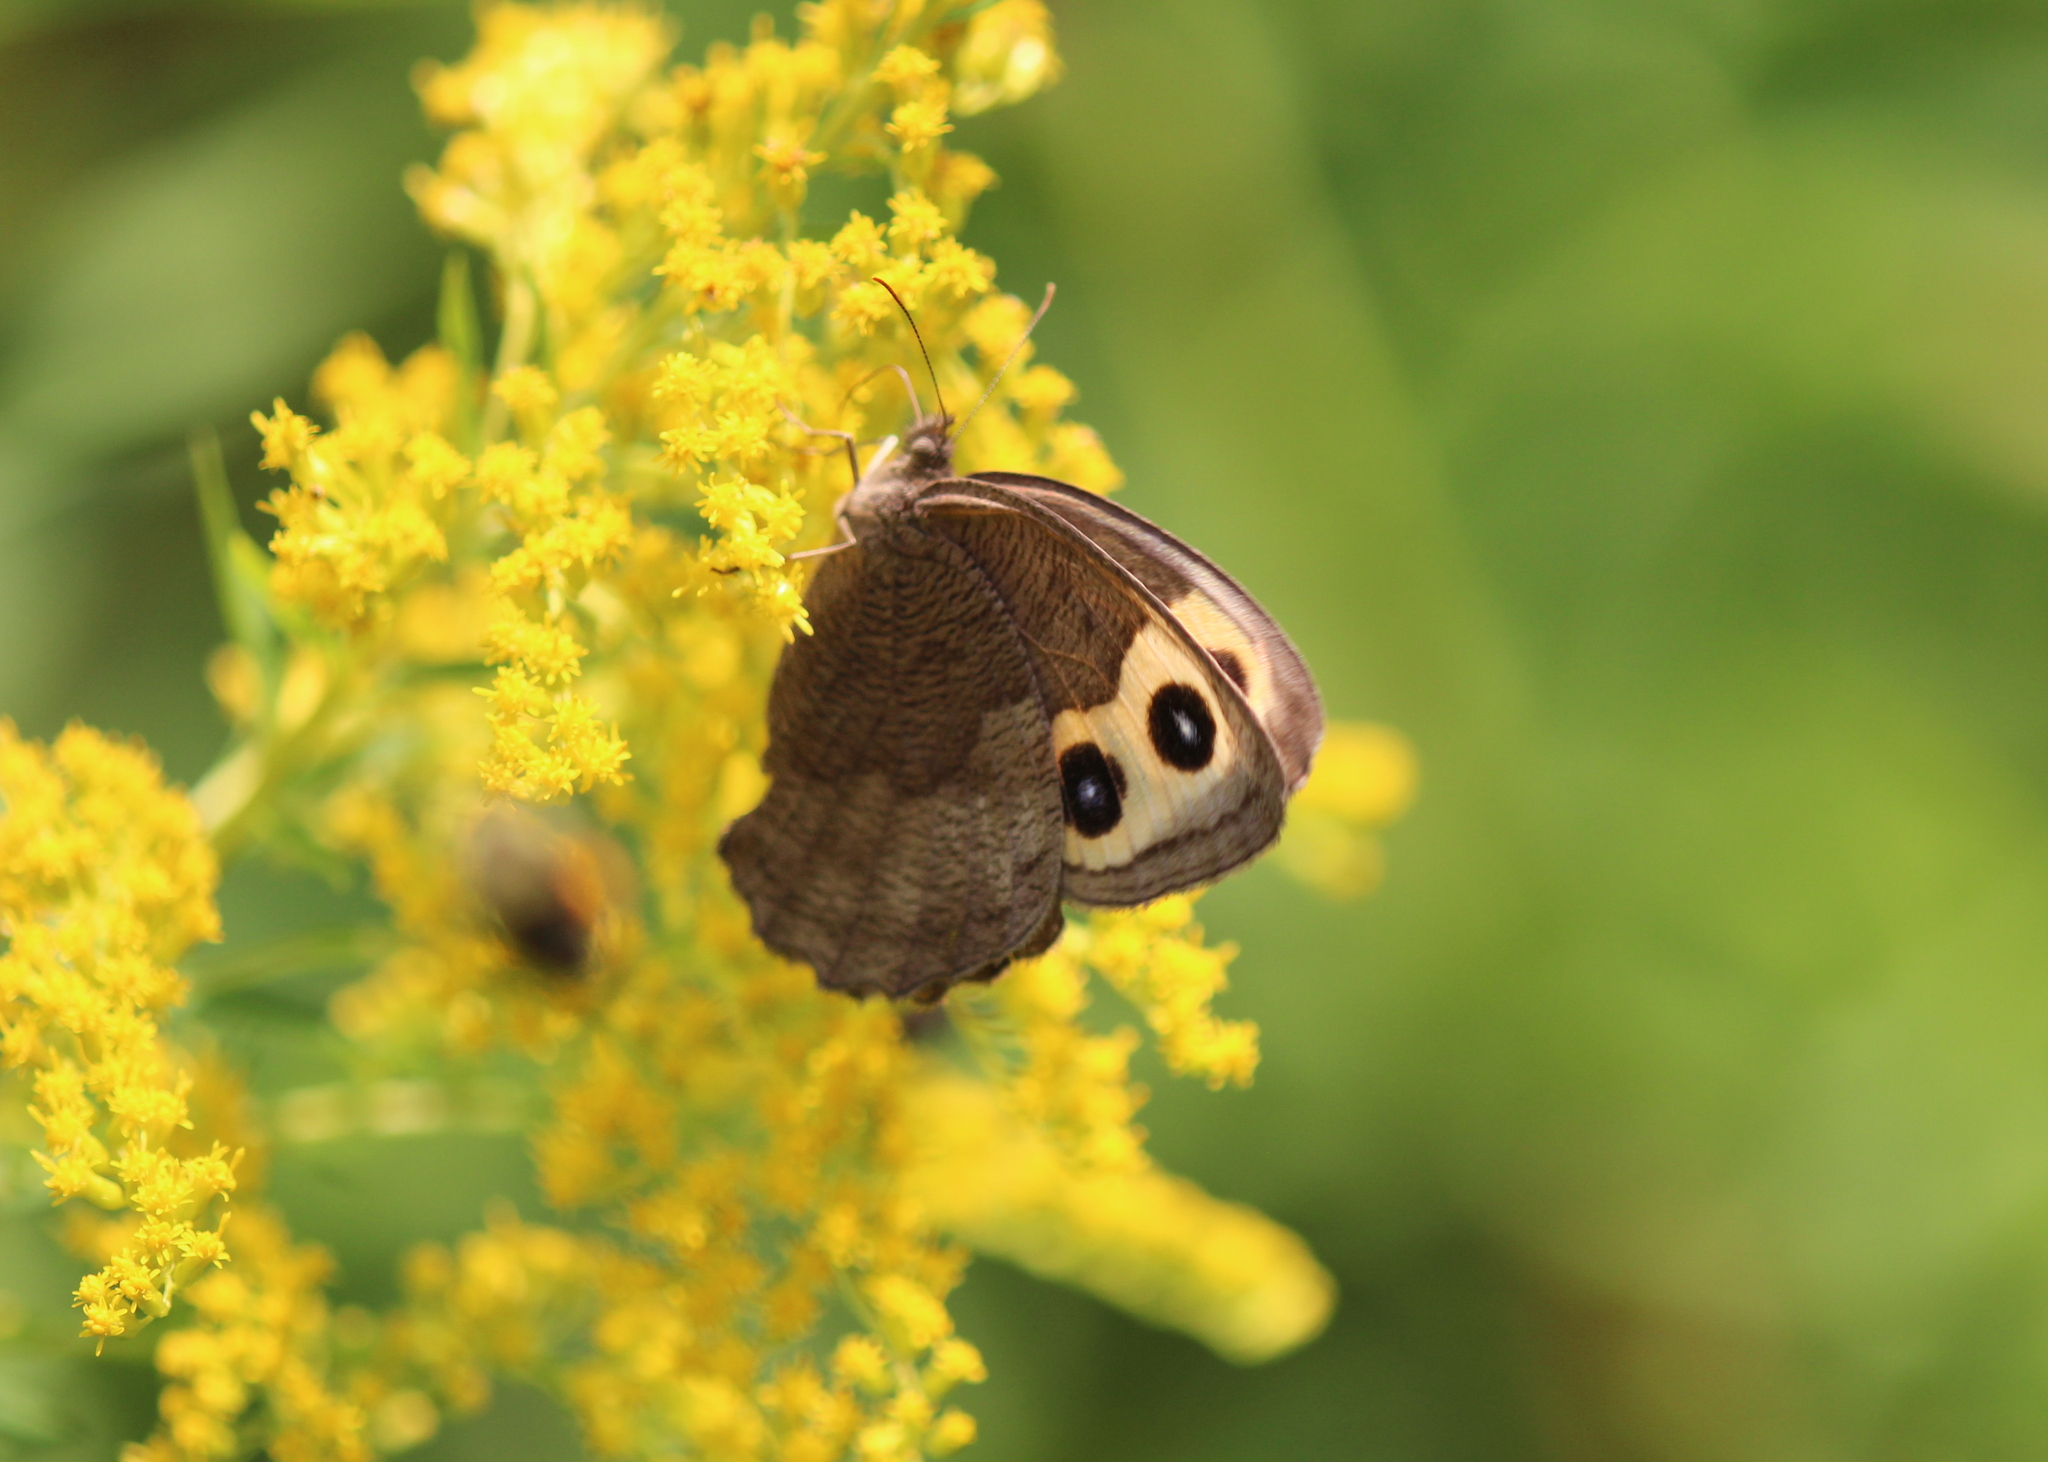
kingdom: Animalia
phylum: Arthropoda
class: Insecta
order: Lepidoptera
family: Nymphalidae
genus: Cercyonis
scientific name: Cercyonis pegala
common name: Common wood-nymph
